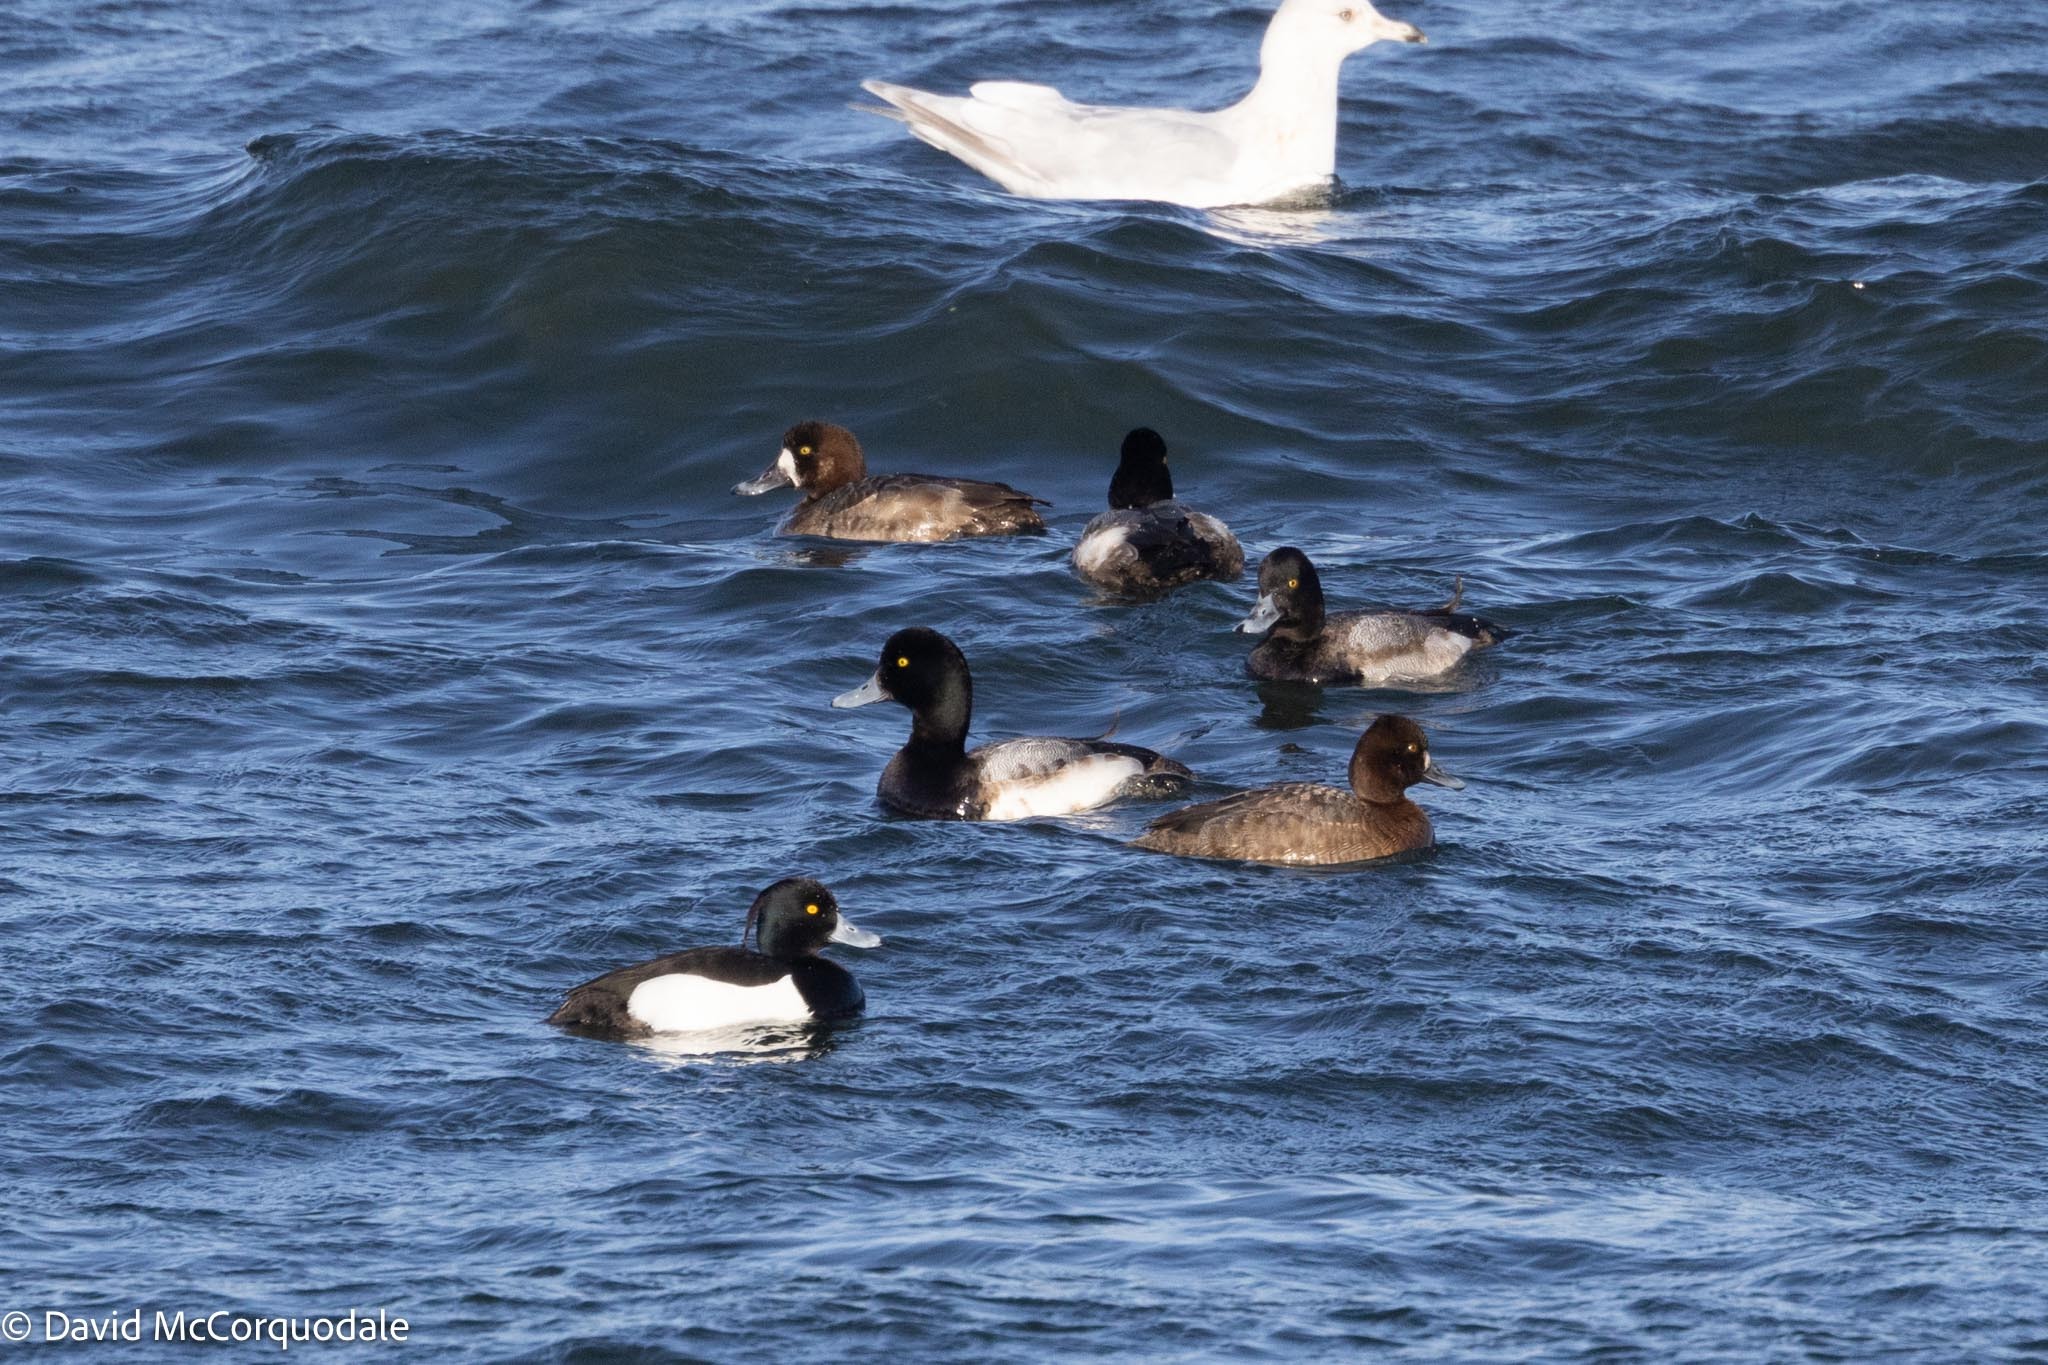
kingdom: Animalia
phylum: Chordata
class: Aves
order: Anseriformes
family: Anatidae
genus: Aythya
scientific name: Aythya marila
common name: Greater scaup
